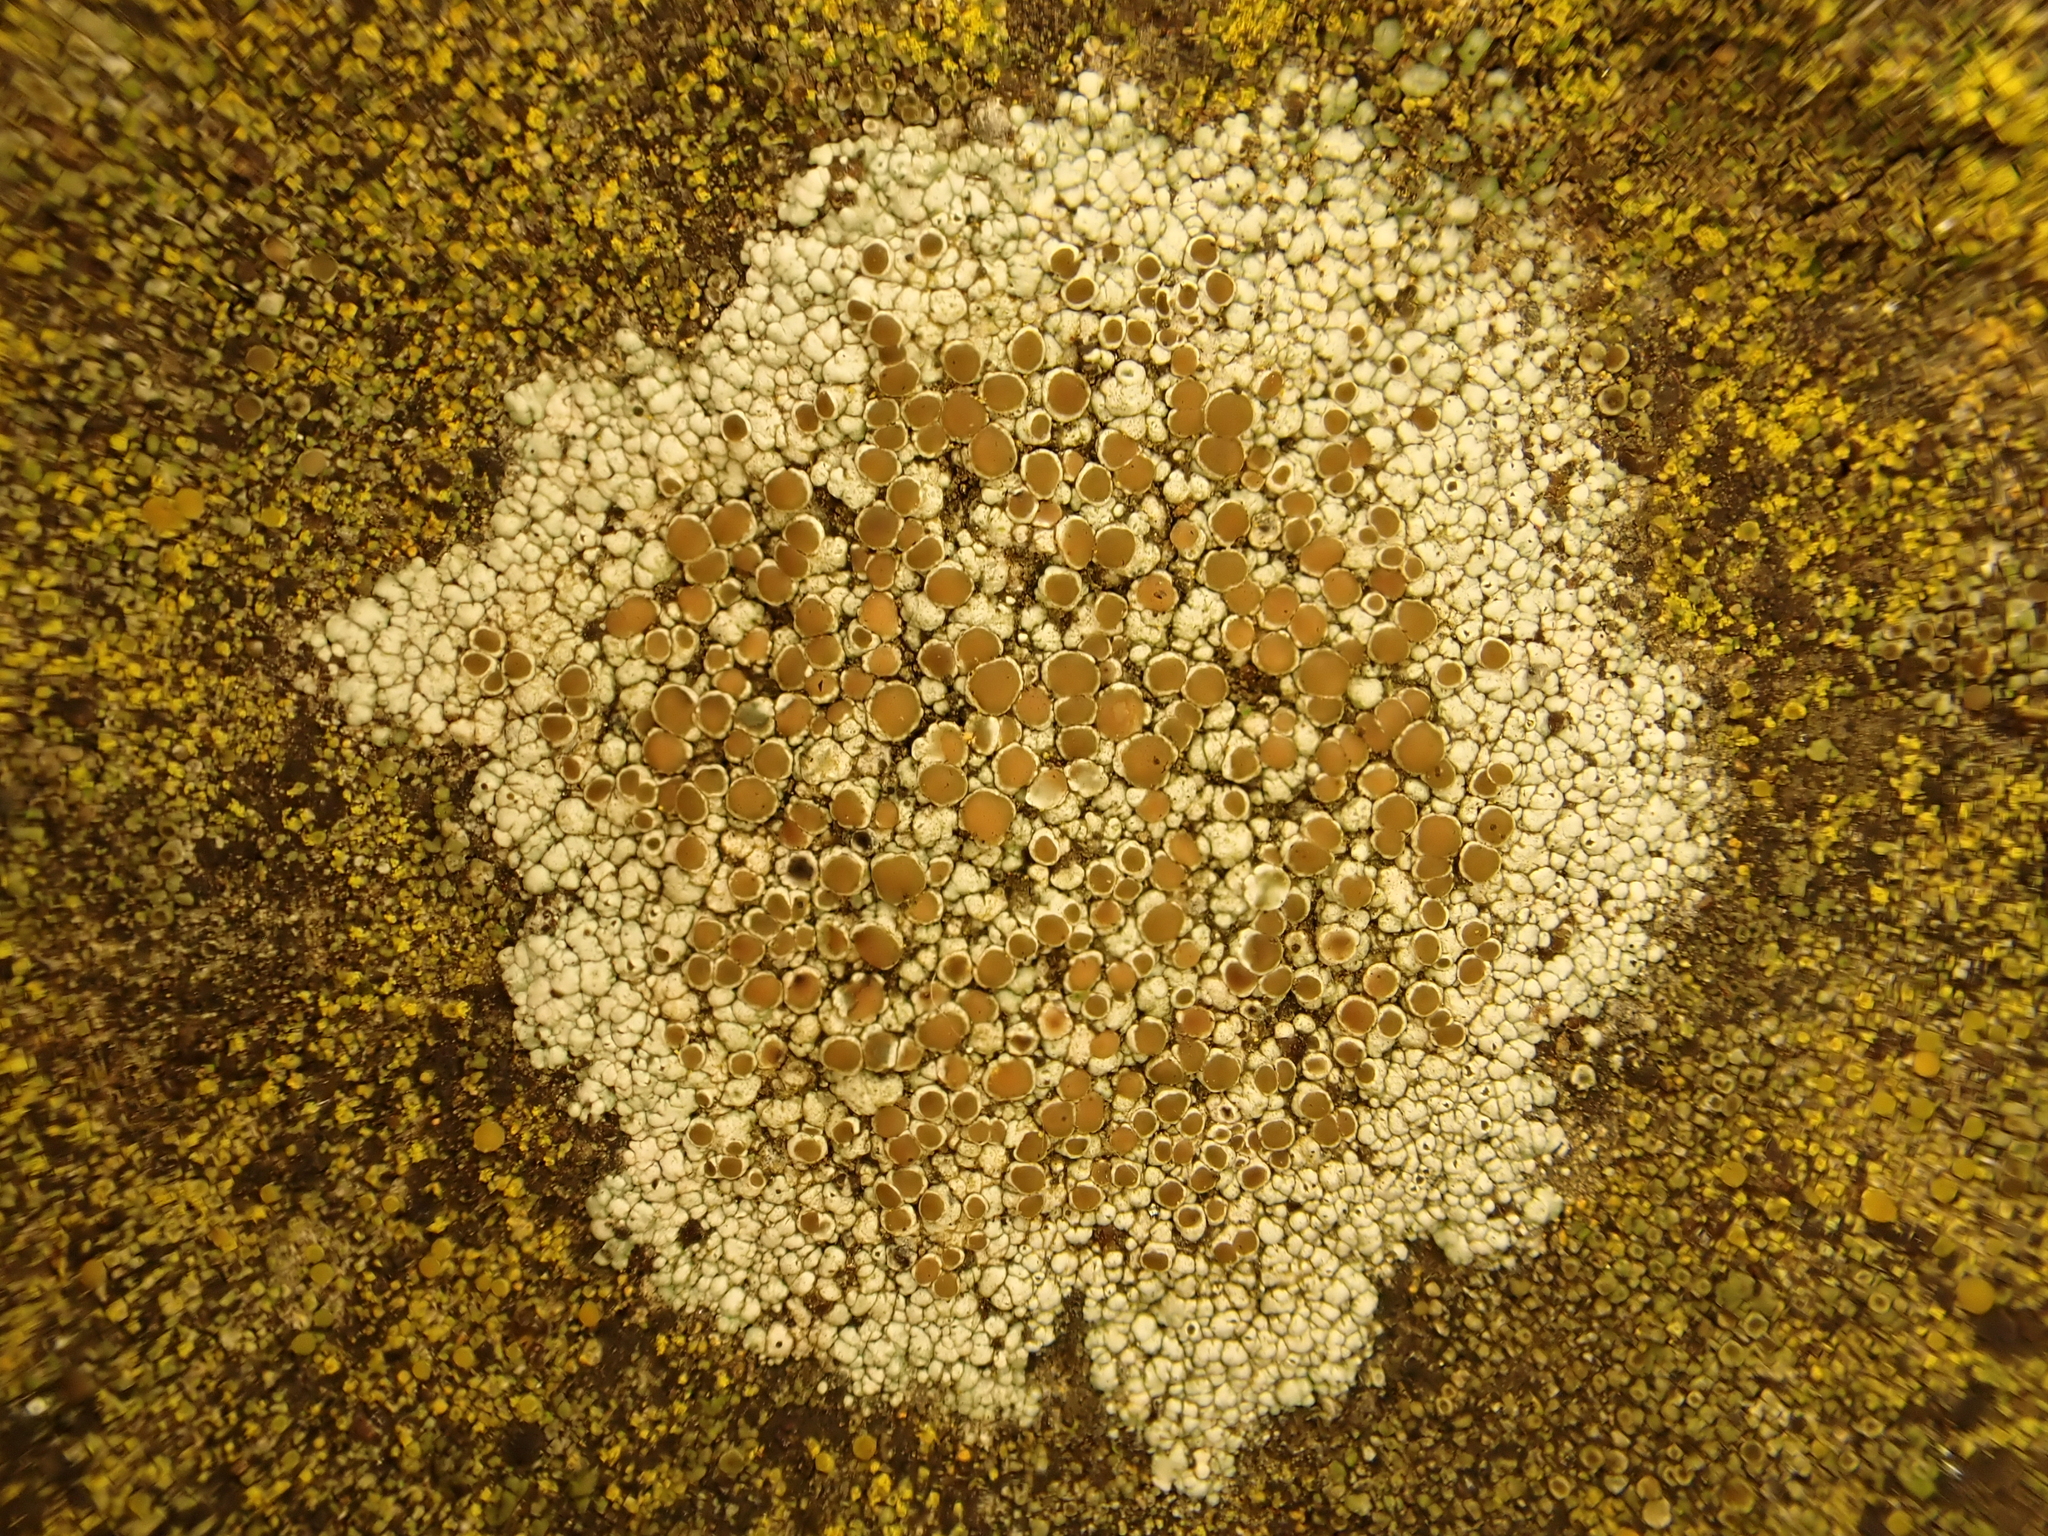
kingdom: Fungi
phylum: Ascomycota
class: Lecanoromycetes
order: Lecanorales
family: Lecanoraceae
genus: Lecanora
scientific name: Lecanora argentata
